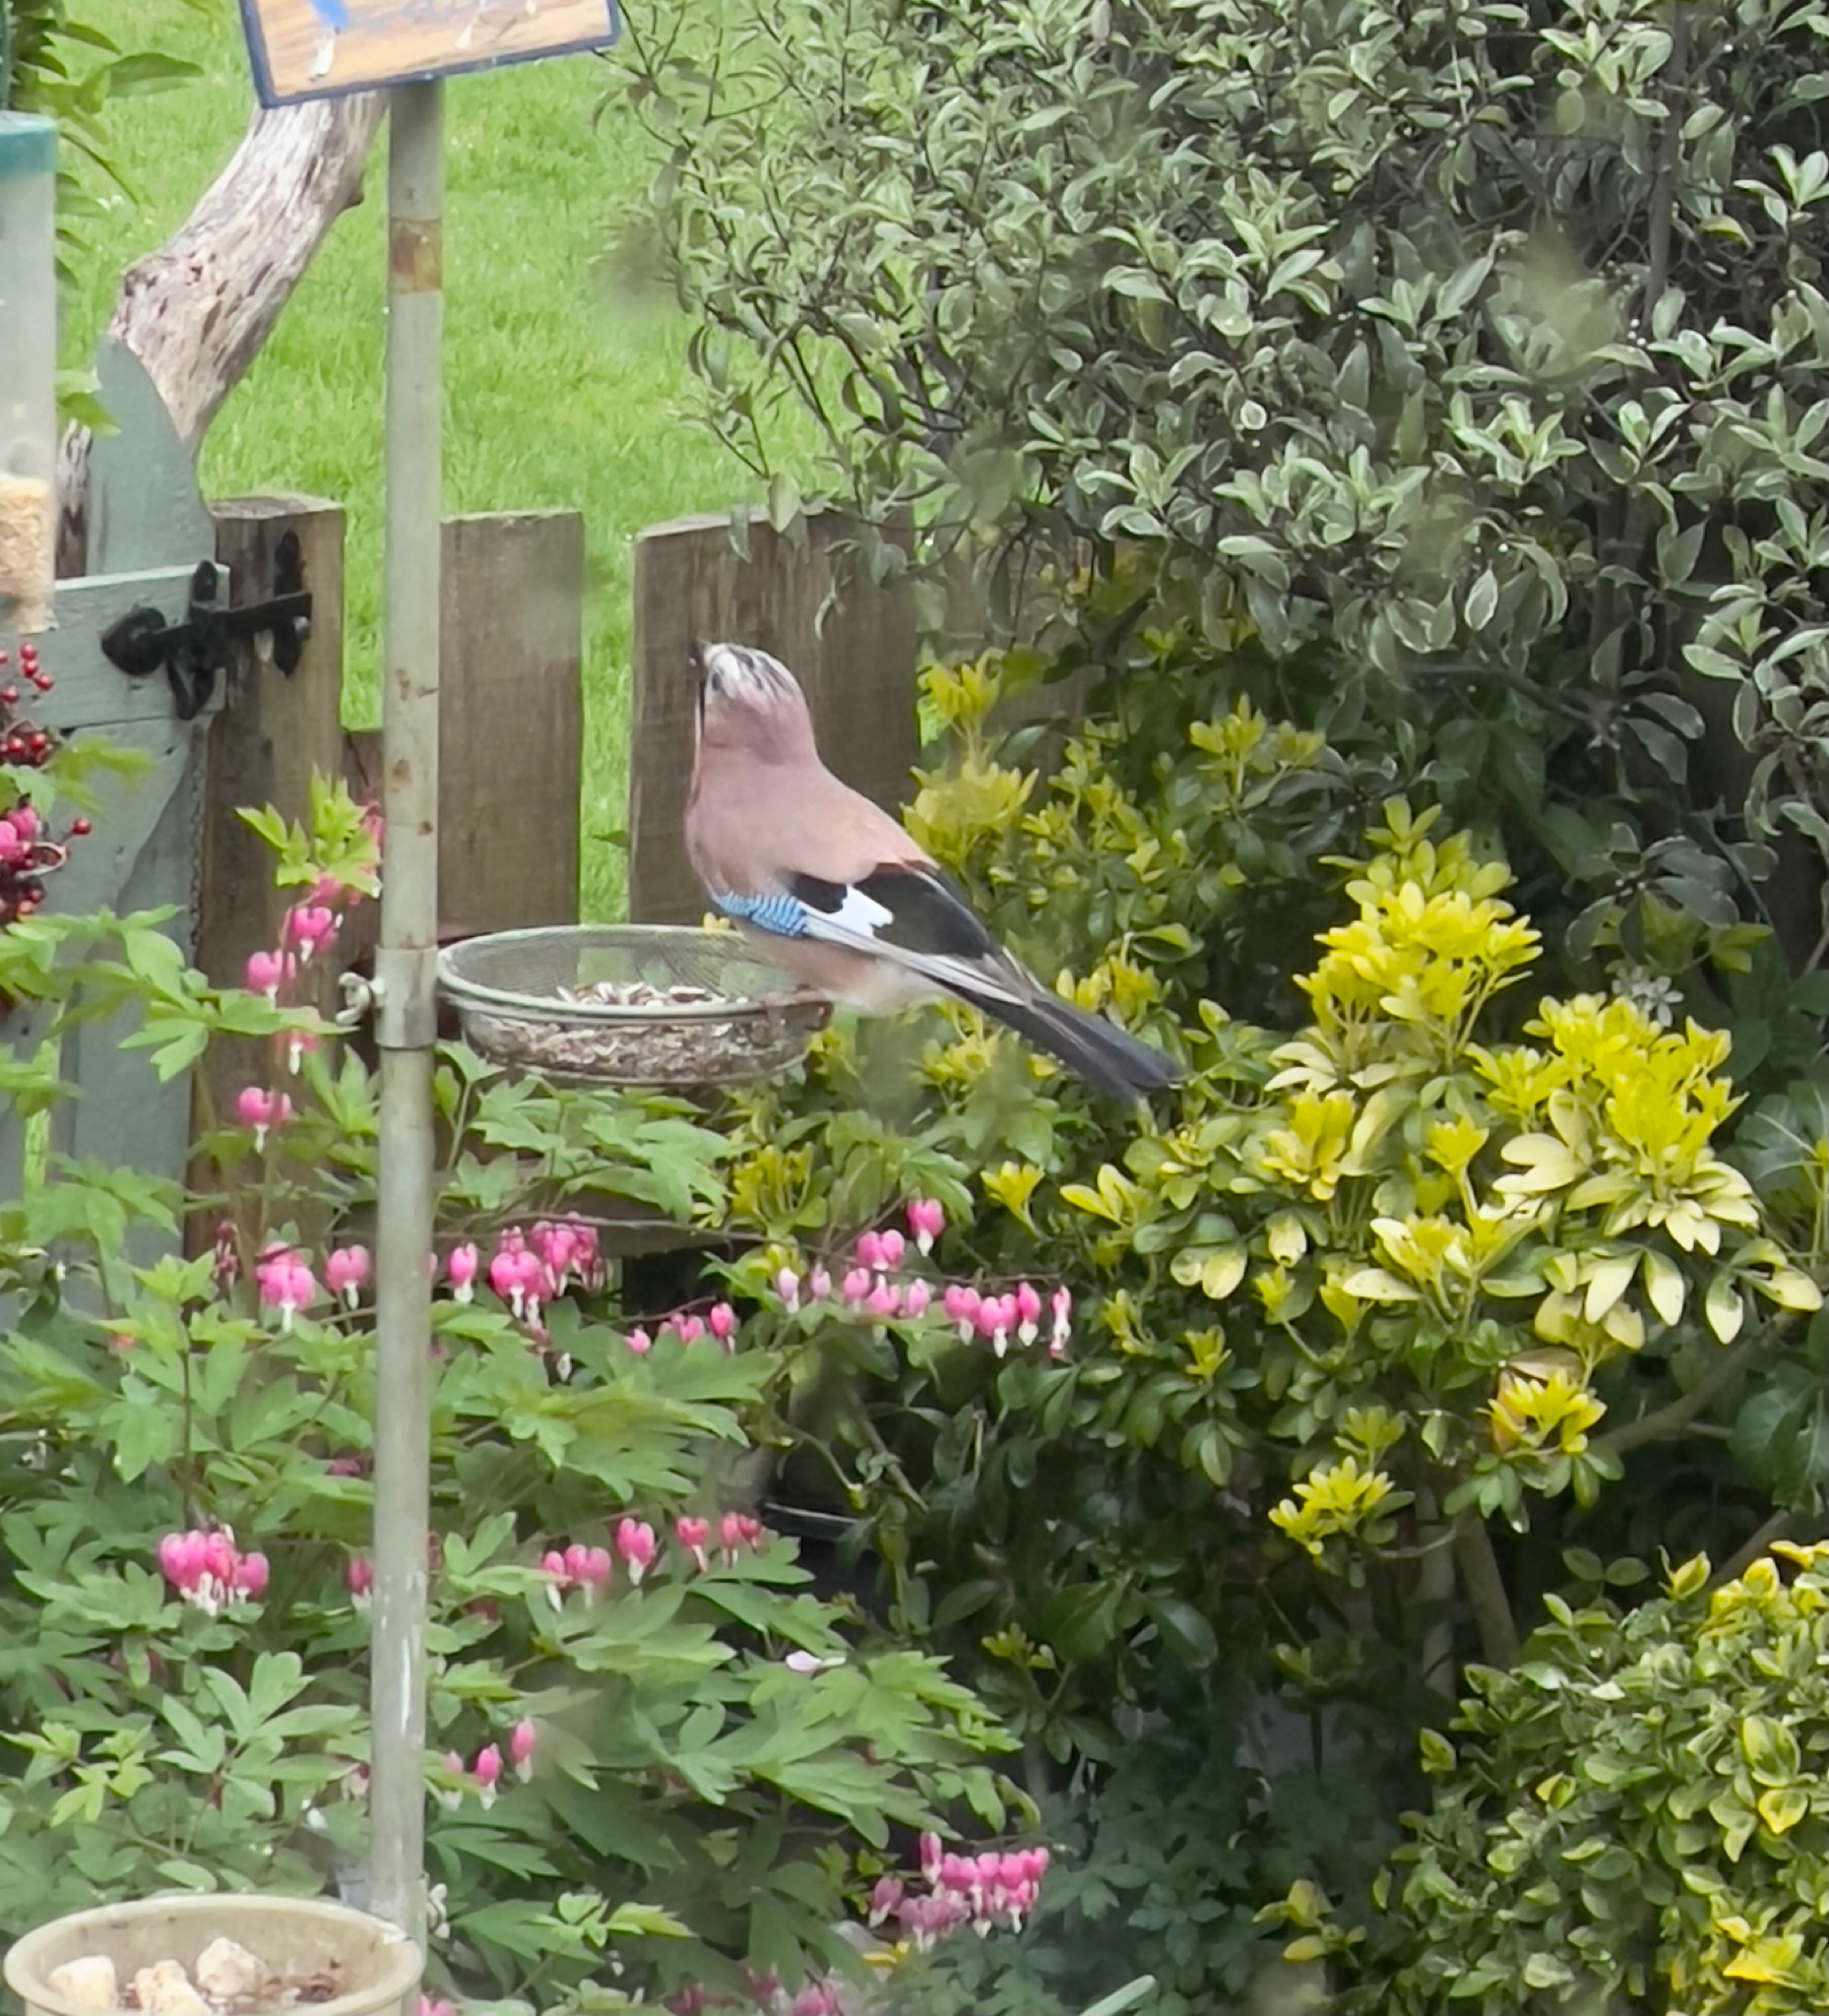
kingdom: Animalia
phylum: Chordata
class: Aves
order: Passeriformes
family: Corvidae
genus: Garrulus
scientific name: Garrulus glandarius
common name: Eurasian jay
